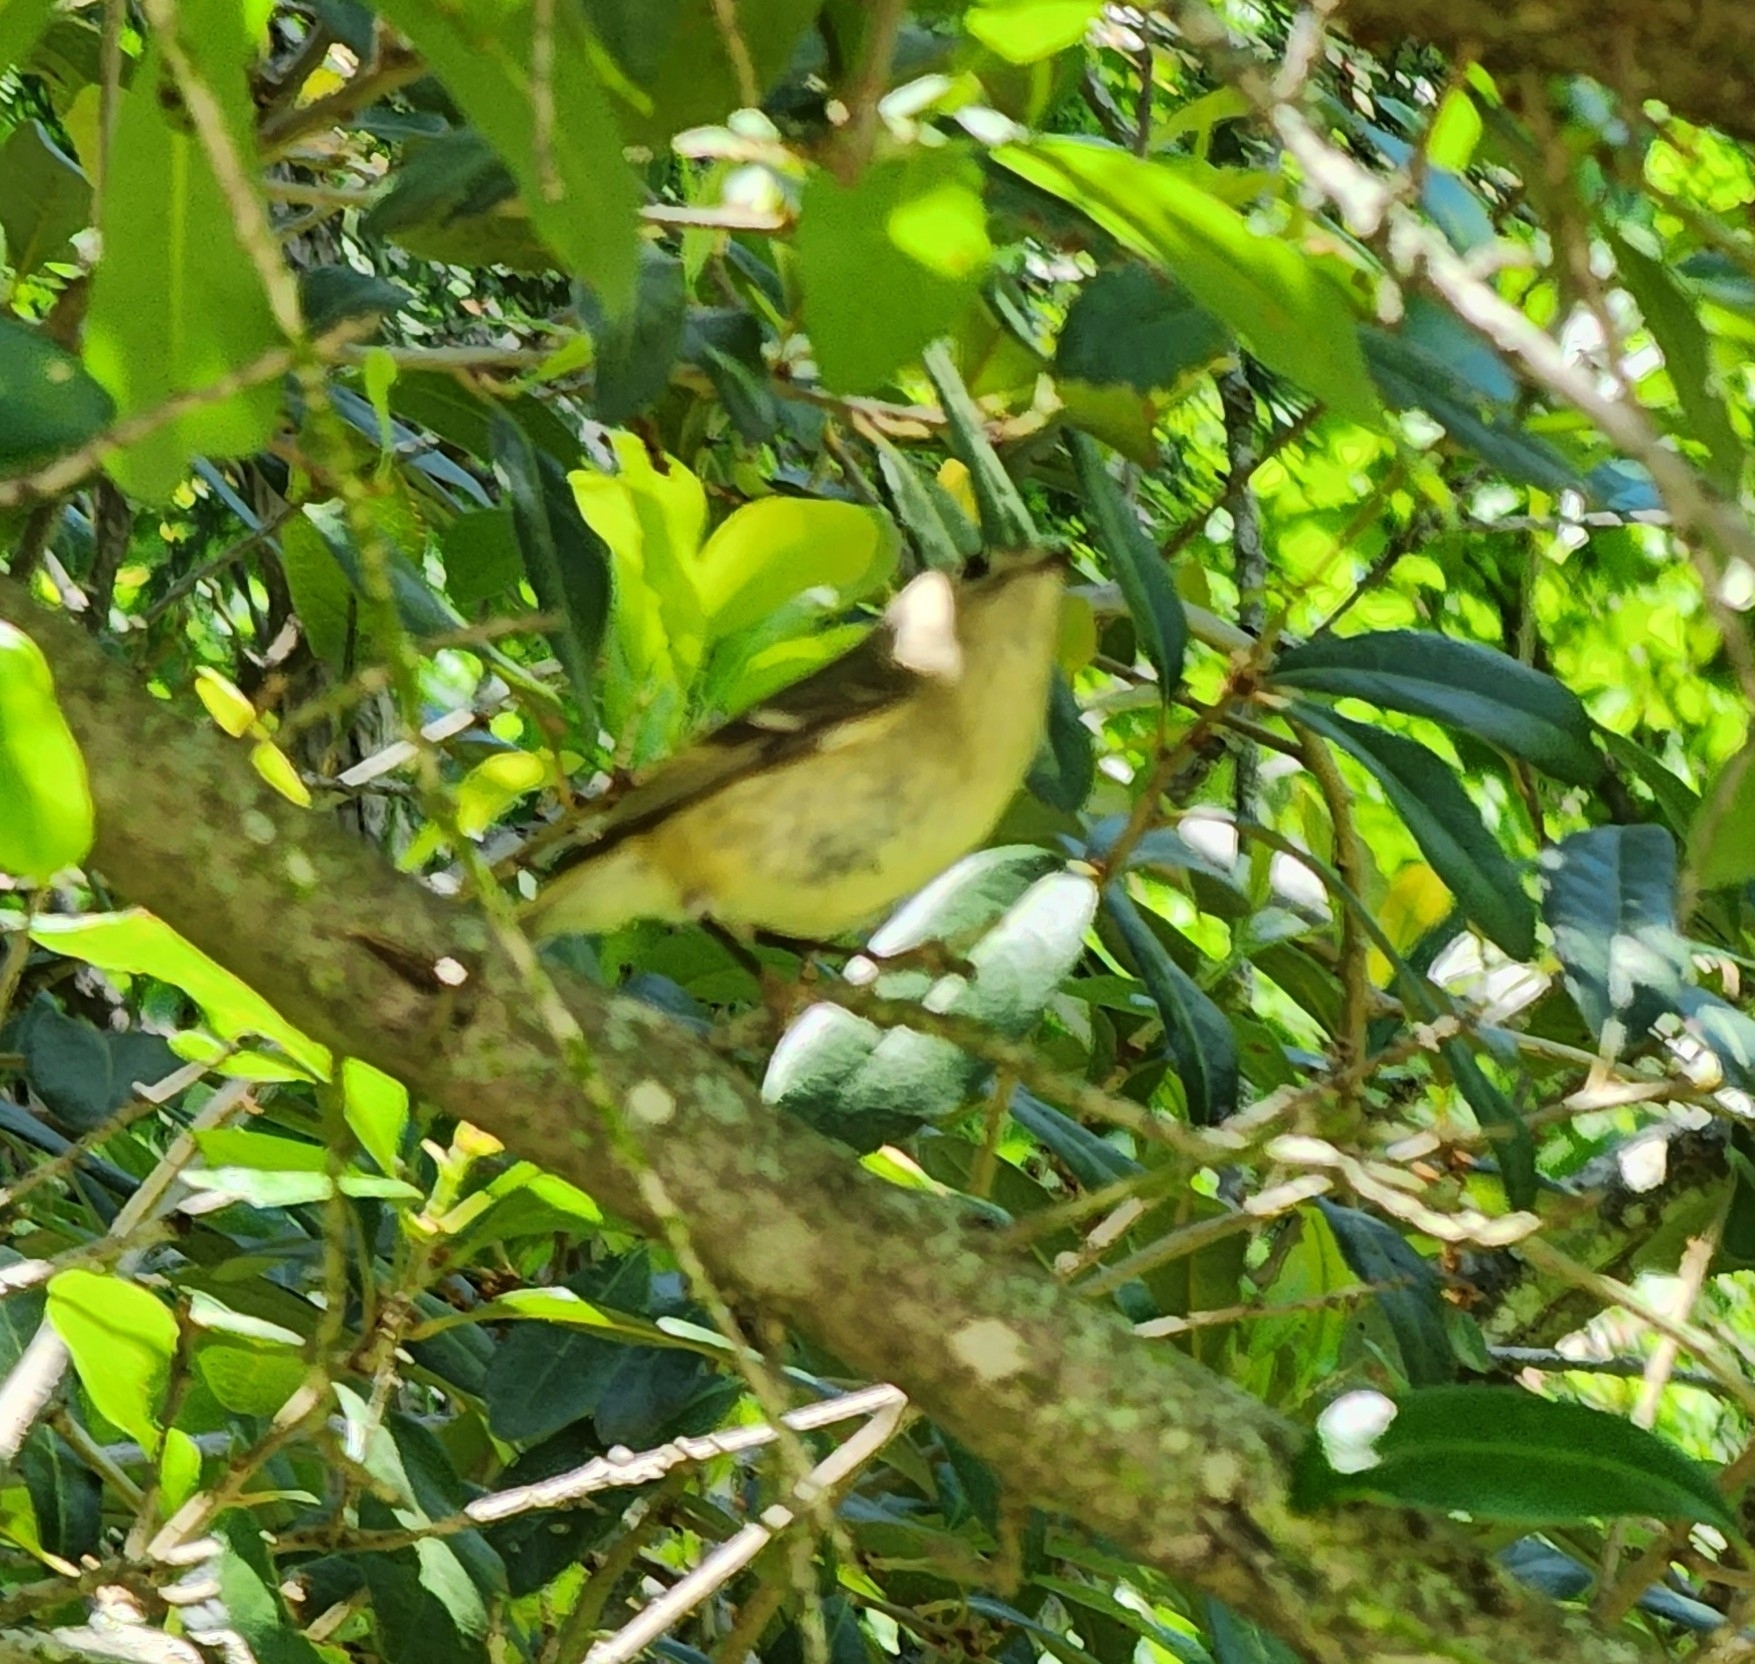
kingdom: Animalia
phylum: Chordata
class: Aves
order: Passeriformes
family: Regulidae
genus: Regulus
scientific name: Regulus calendula
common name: Ruby-crowned kinglet
